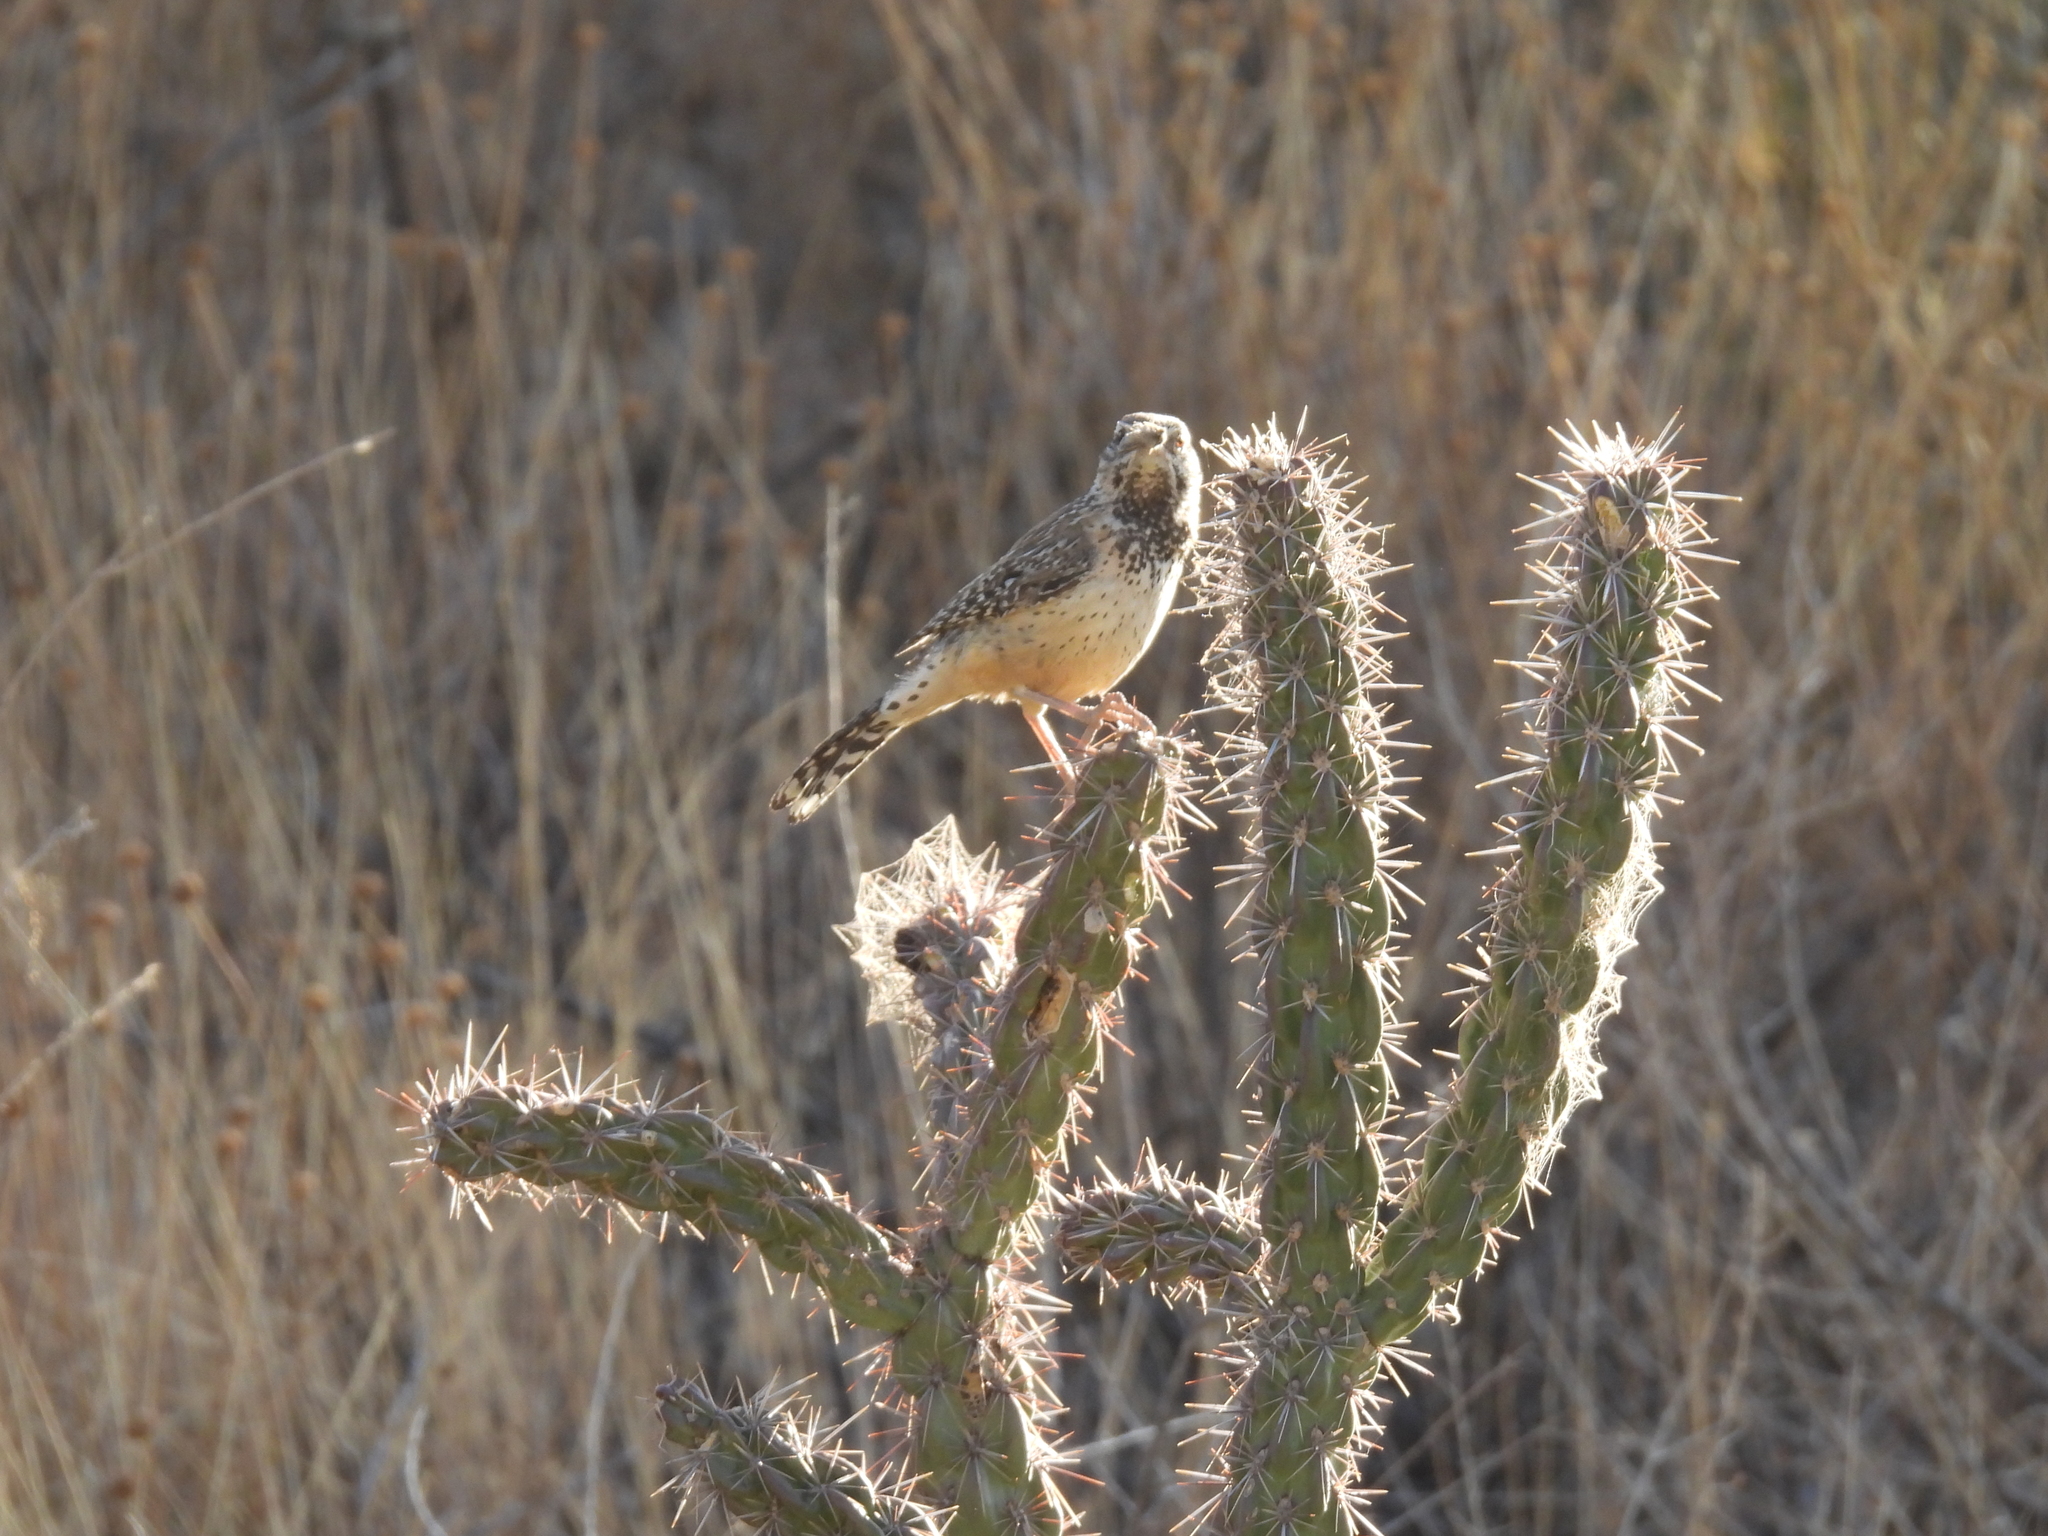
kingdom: Animalia
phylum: Chordata
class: Aves
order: Passeriformes
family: Troglodytidae
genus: Campylorhynchus
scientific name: Campylorhynchus brunneicapillus
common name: Cactus wren
